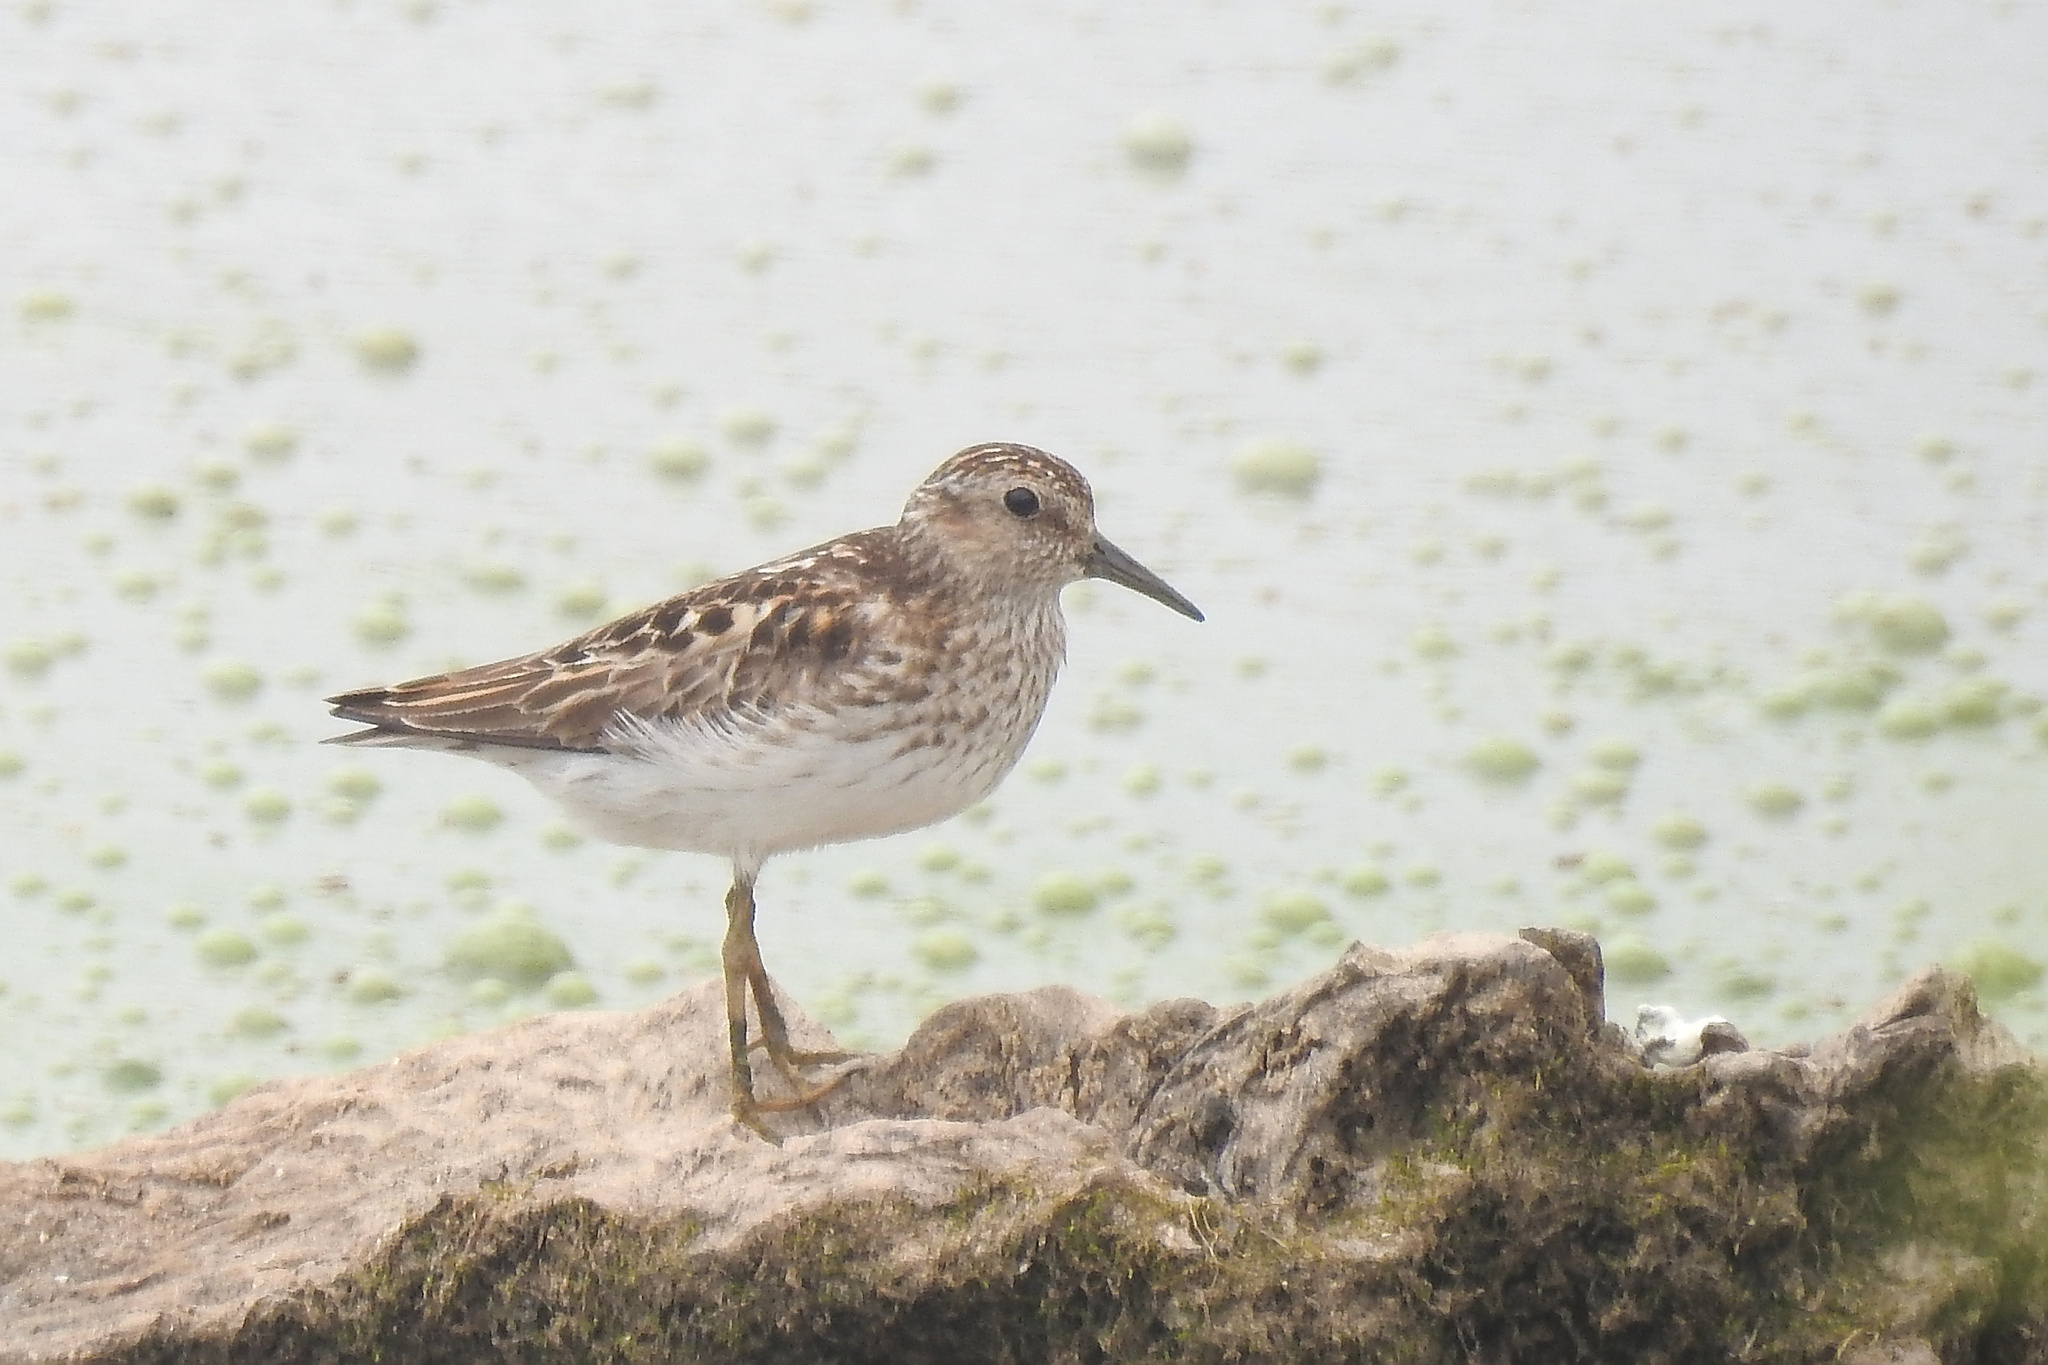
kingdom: Animalia
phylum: Chordata
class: Aves
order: Charadriiformes
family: Scolopacidae
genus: Calidris
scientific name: Calidris minutilla
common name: Least sandpiper
